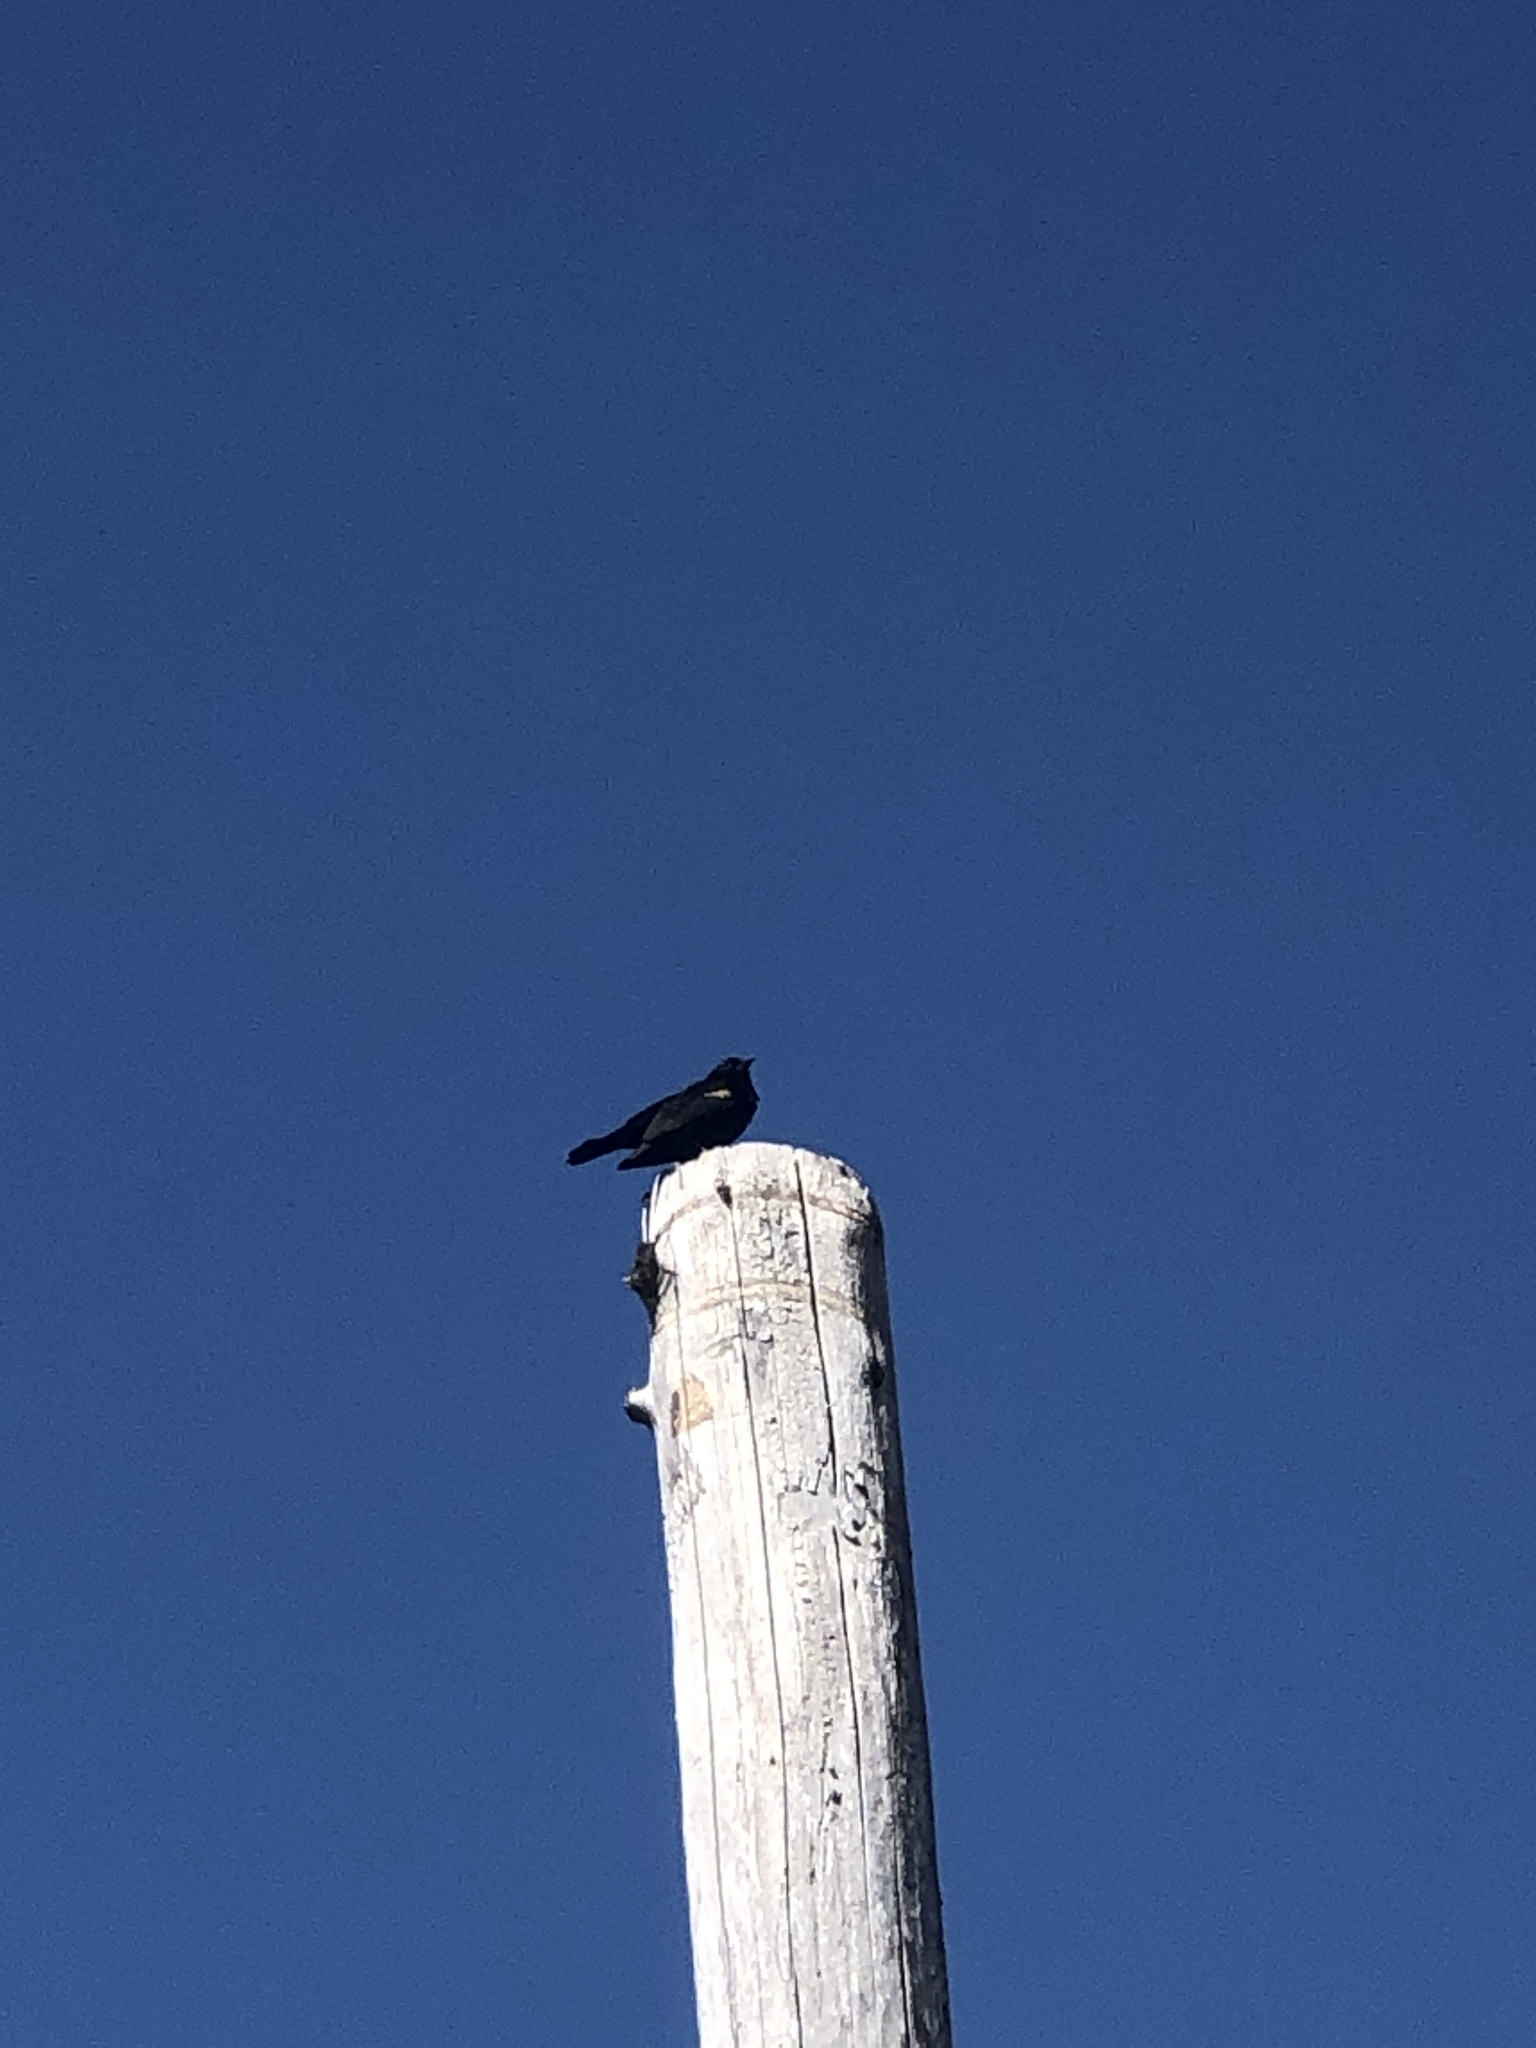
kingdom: Animalia
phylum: Chordata
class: Aves
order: Passeriformes
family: Icteridae
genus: Agelaius
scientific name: Agelaius phoeniceus
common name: Red-winged blackbird
